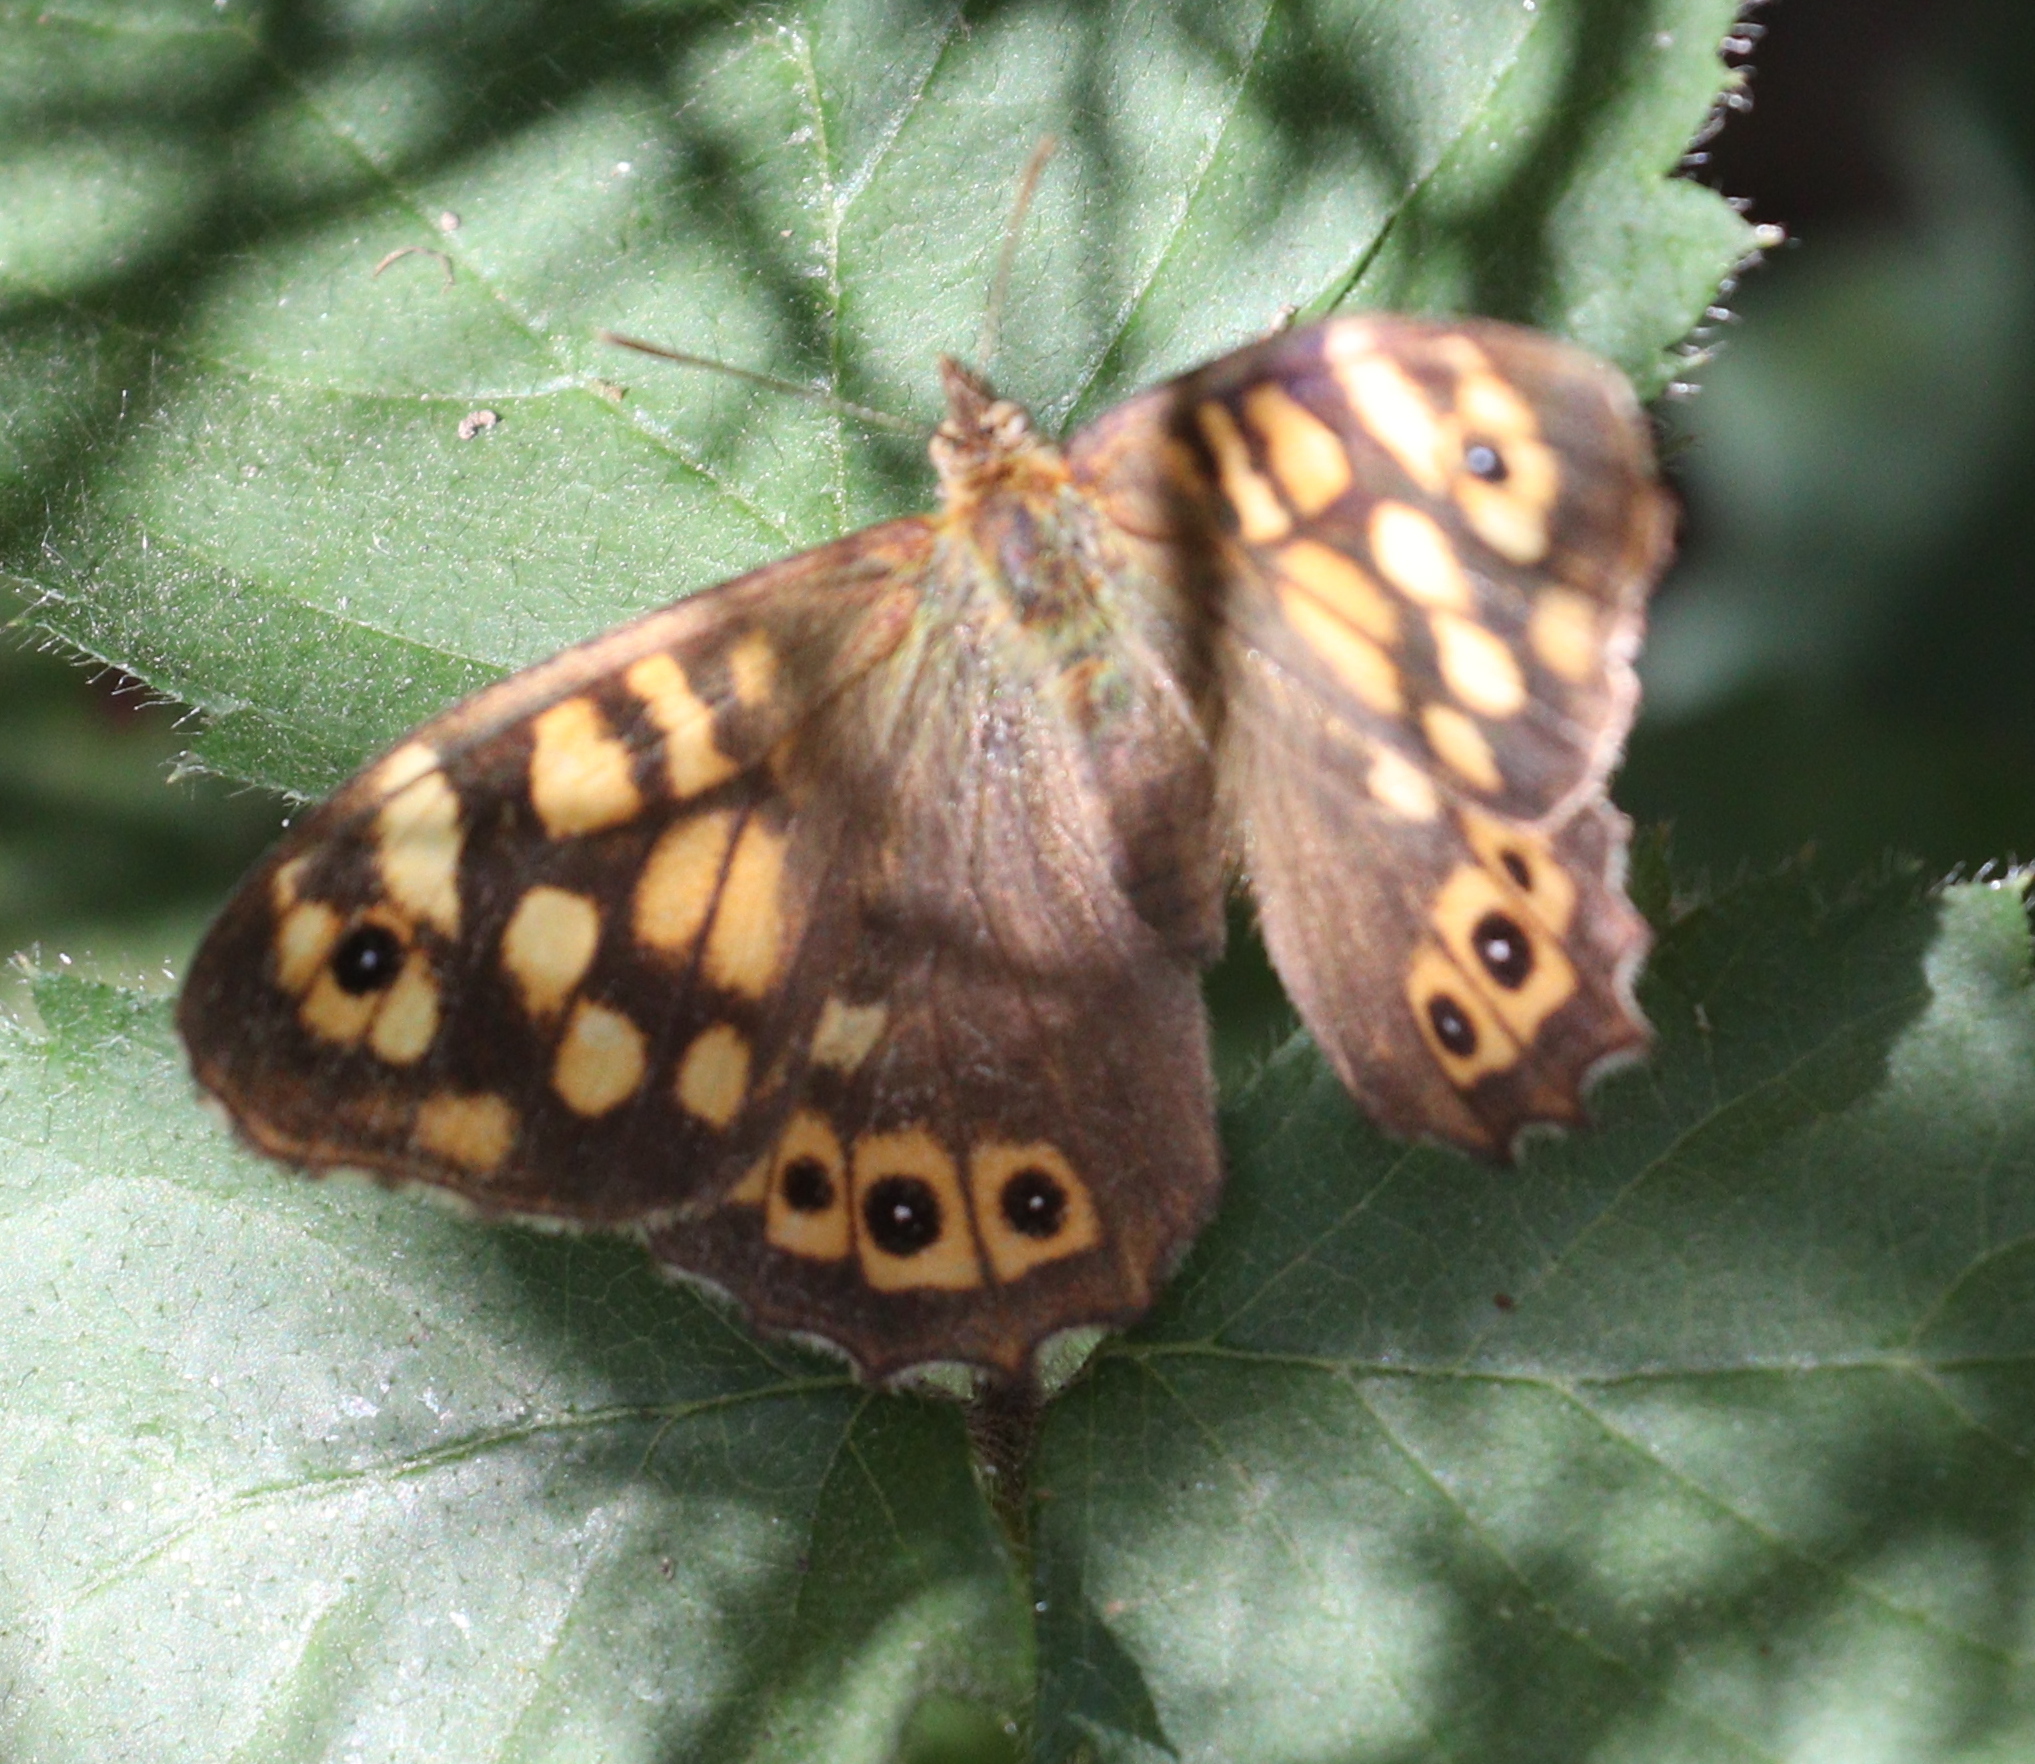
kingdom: Animalia
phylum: Arthropoda
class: Insecta
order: Lepidoptera
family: Nymphalidae
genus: Pararge
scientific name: Pararge aegeria
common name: Speckled wood
